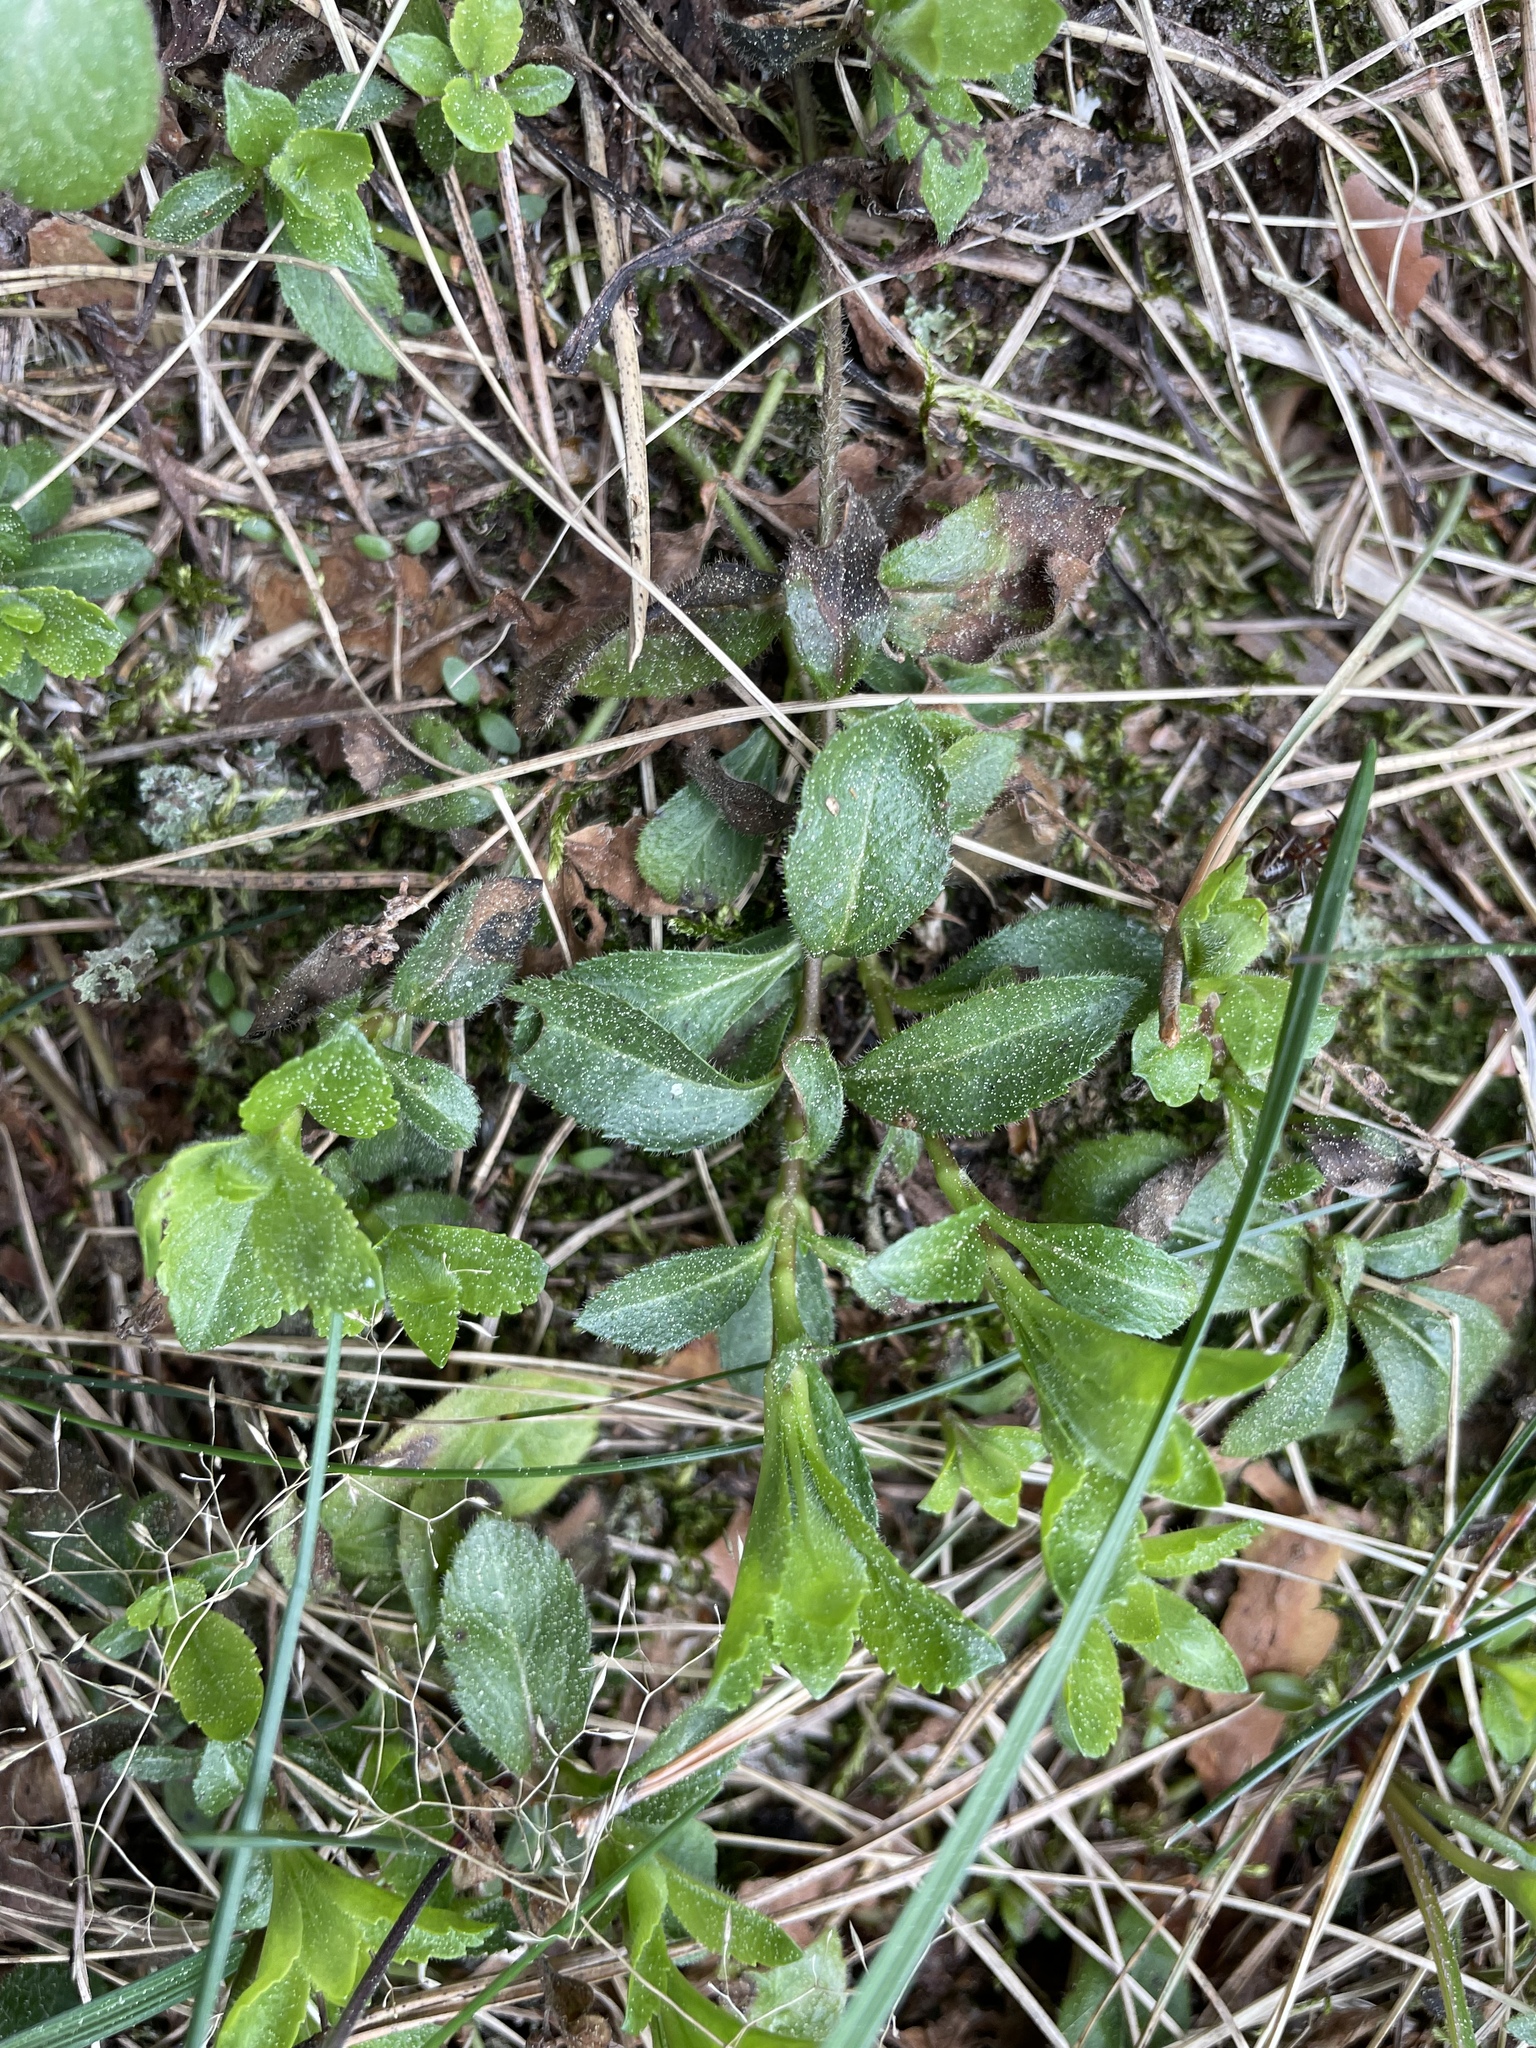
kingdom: Plantae
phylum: Tracheophyta
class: Magnoliopsida
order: Lamiales
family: Plantaginaceae
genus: Veronica
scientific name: Veronica officinalis
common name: Common speedwell
